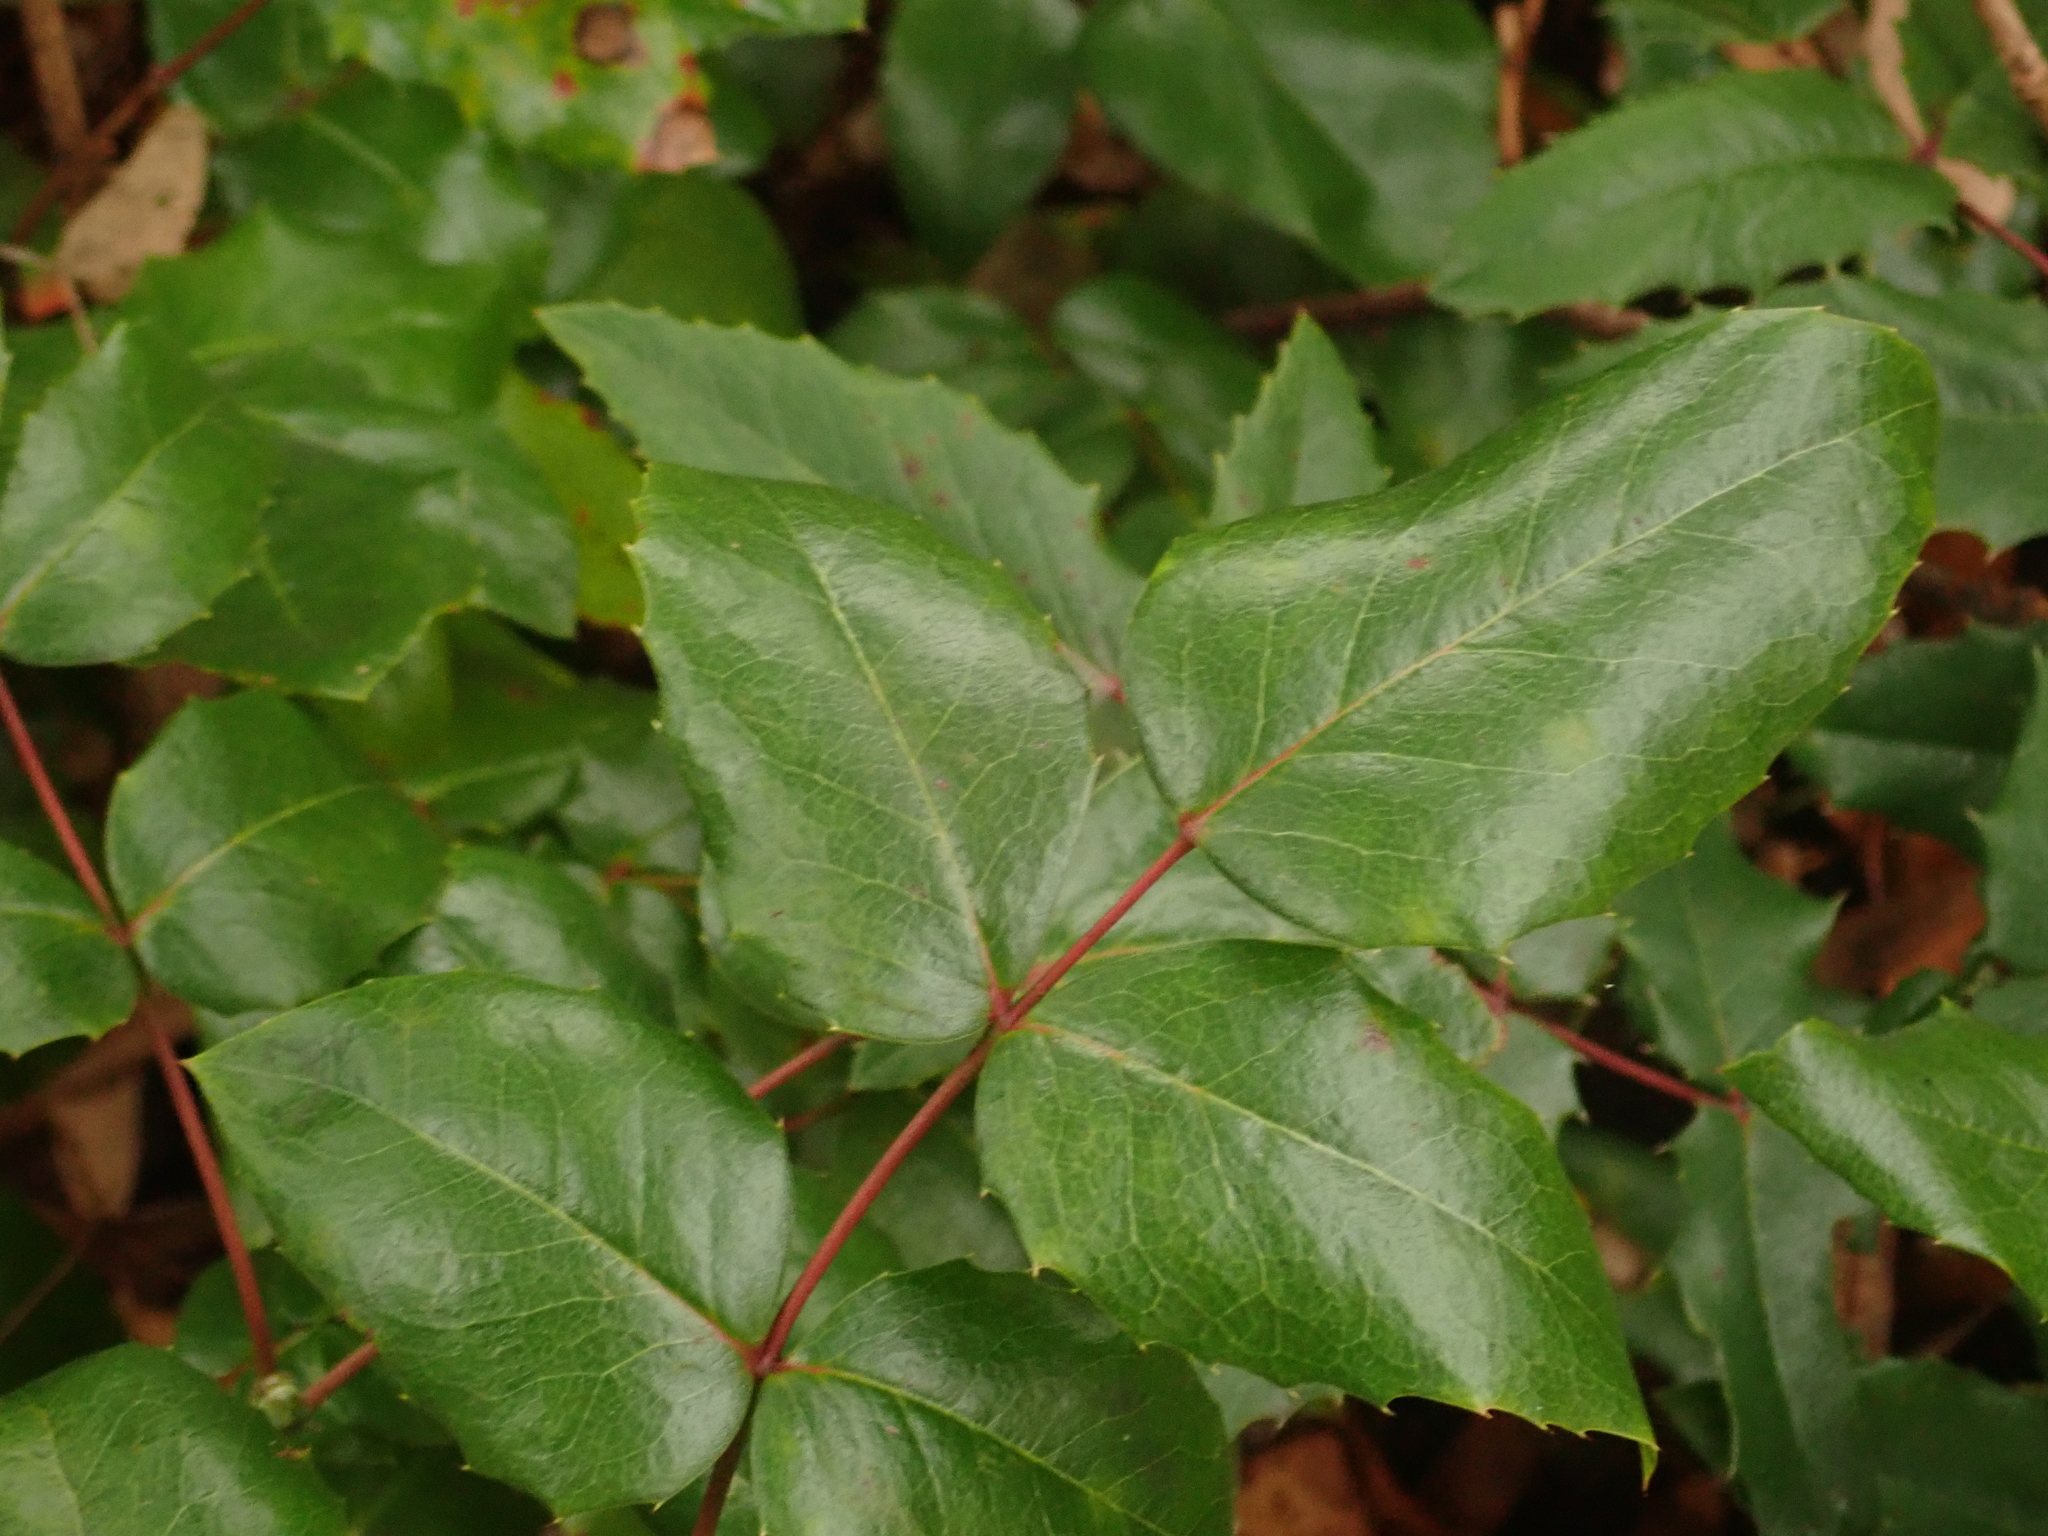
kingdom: Plantae
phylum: Tracheophyta
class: Magnoliopsida
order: Ranunculales
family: Berberidaceae
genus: Mahonia
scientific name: Mahonia aquifolium
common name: Oregon-grape
